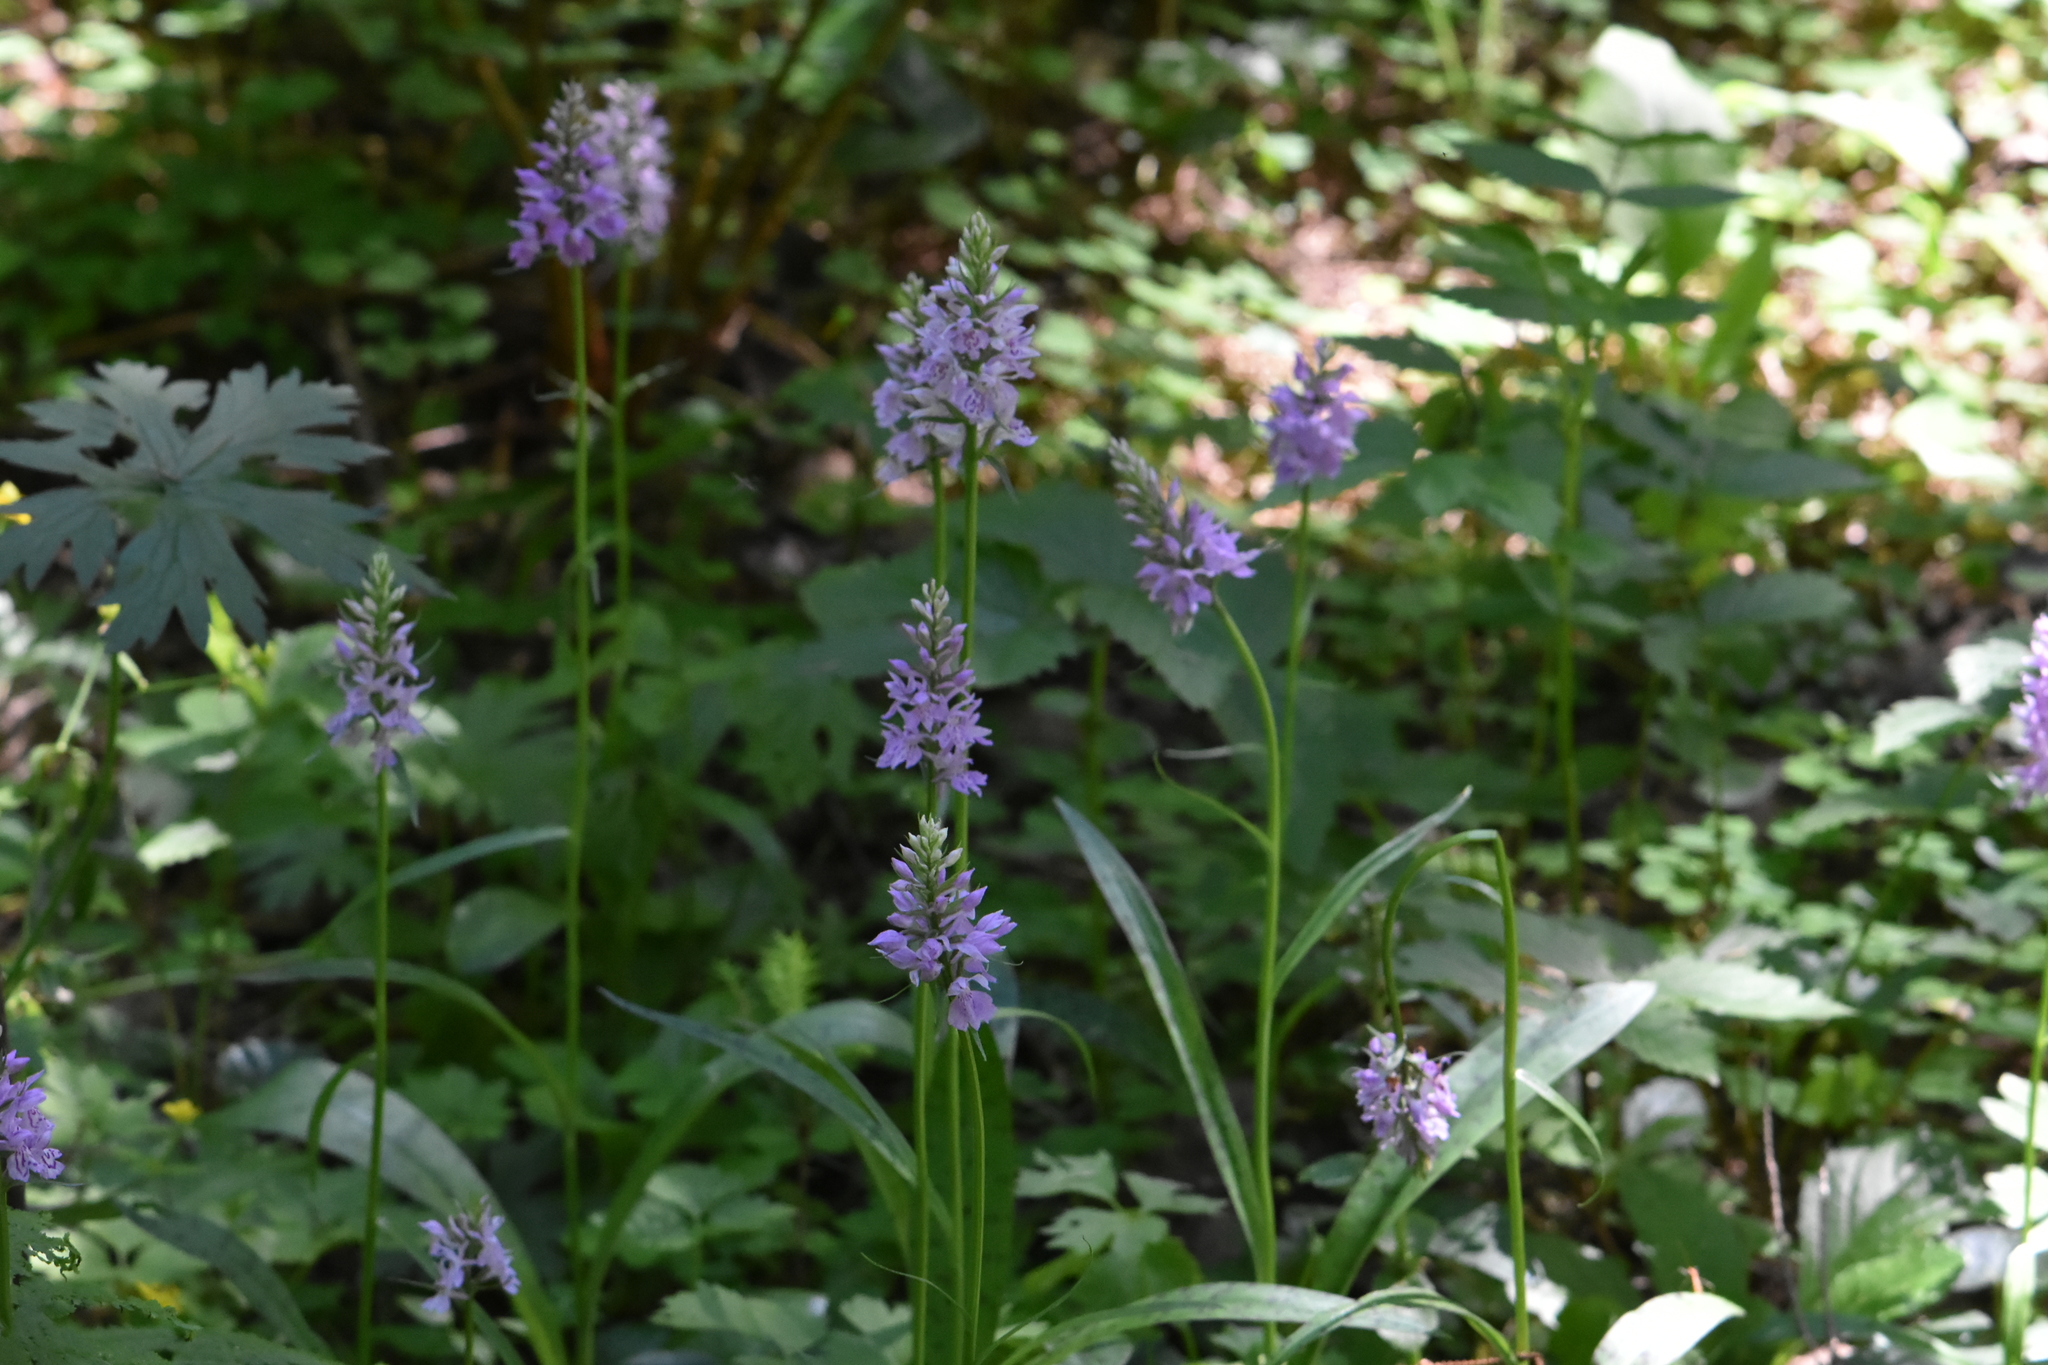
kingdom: Plantae
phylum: Tracheophyta
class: Liliopsida
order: Asparagales
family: Orchidaceae
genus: Dactylorhiza
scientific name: Dactylorhiza maculata
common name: Heath spotted-orchid
